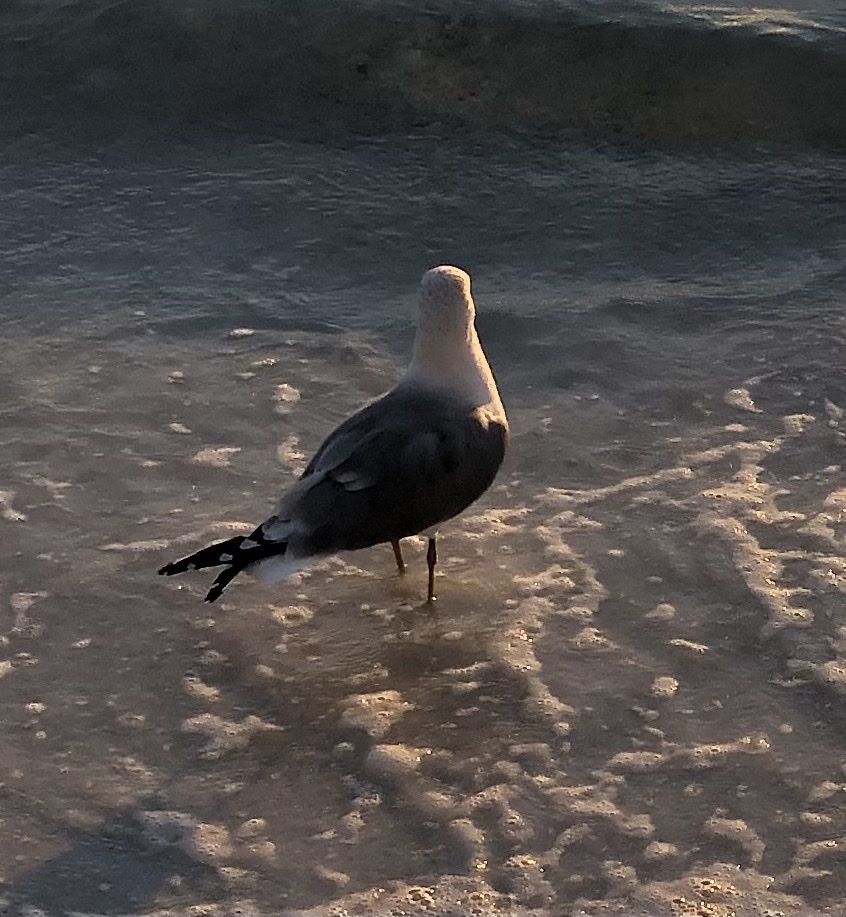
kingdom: Animalia
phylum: Chordata
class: Aves
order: Charadriiformes
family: Laridae
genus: Larus
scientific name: Larus fuscus
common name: Lesser black-backed gull
